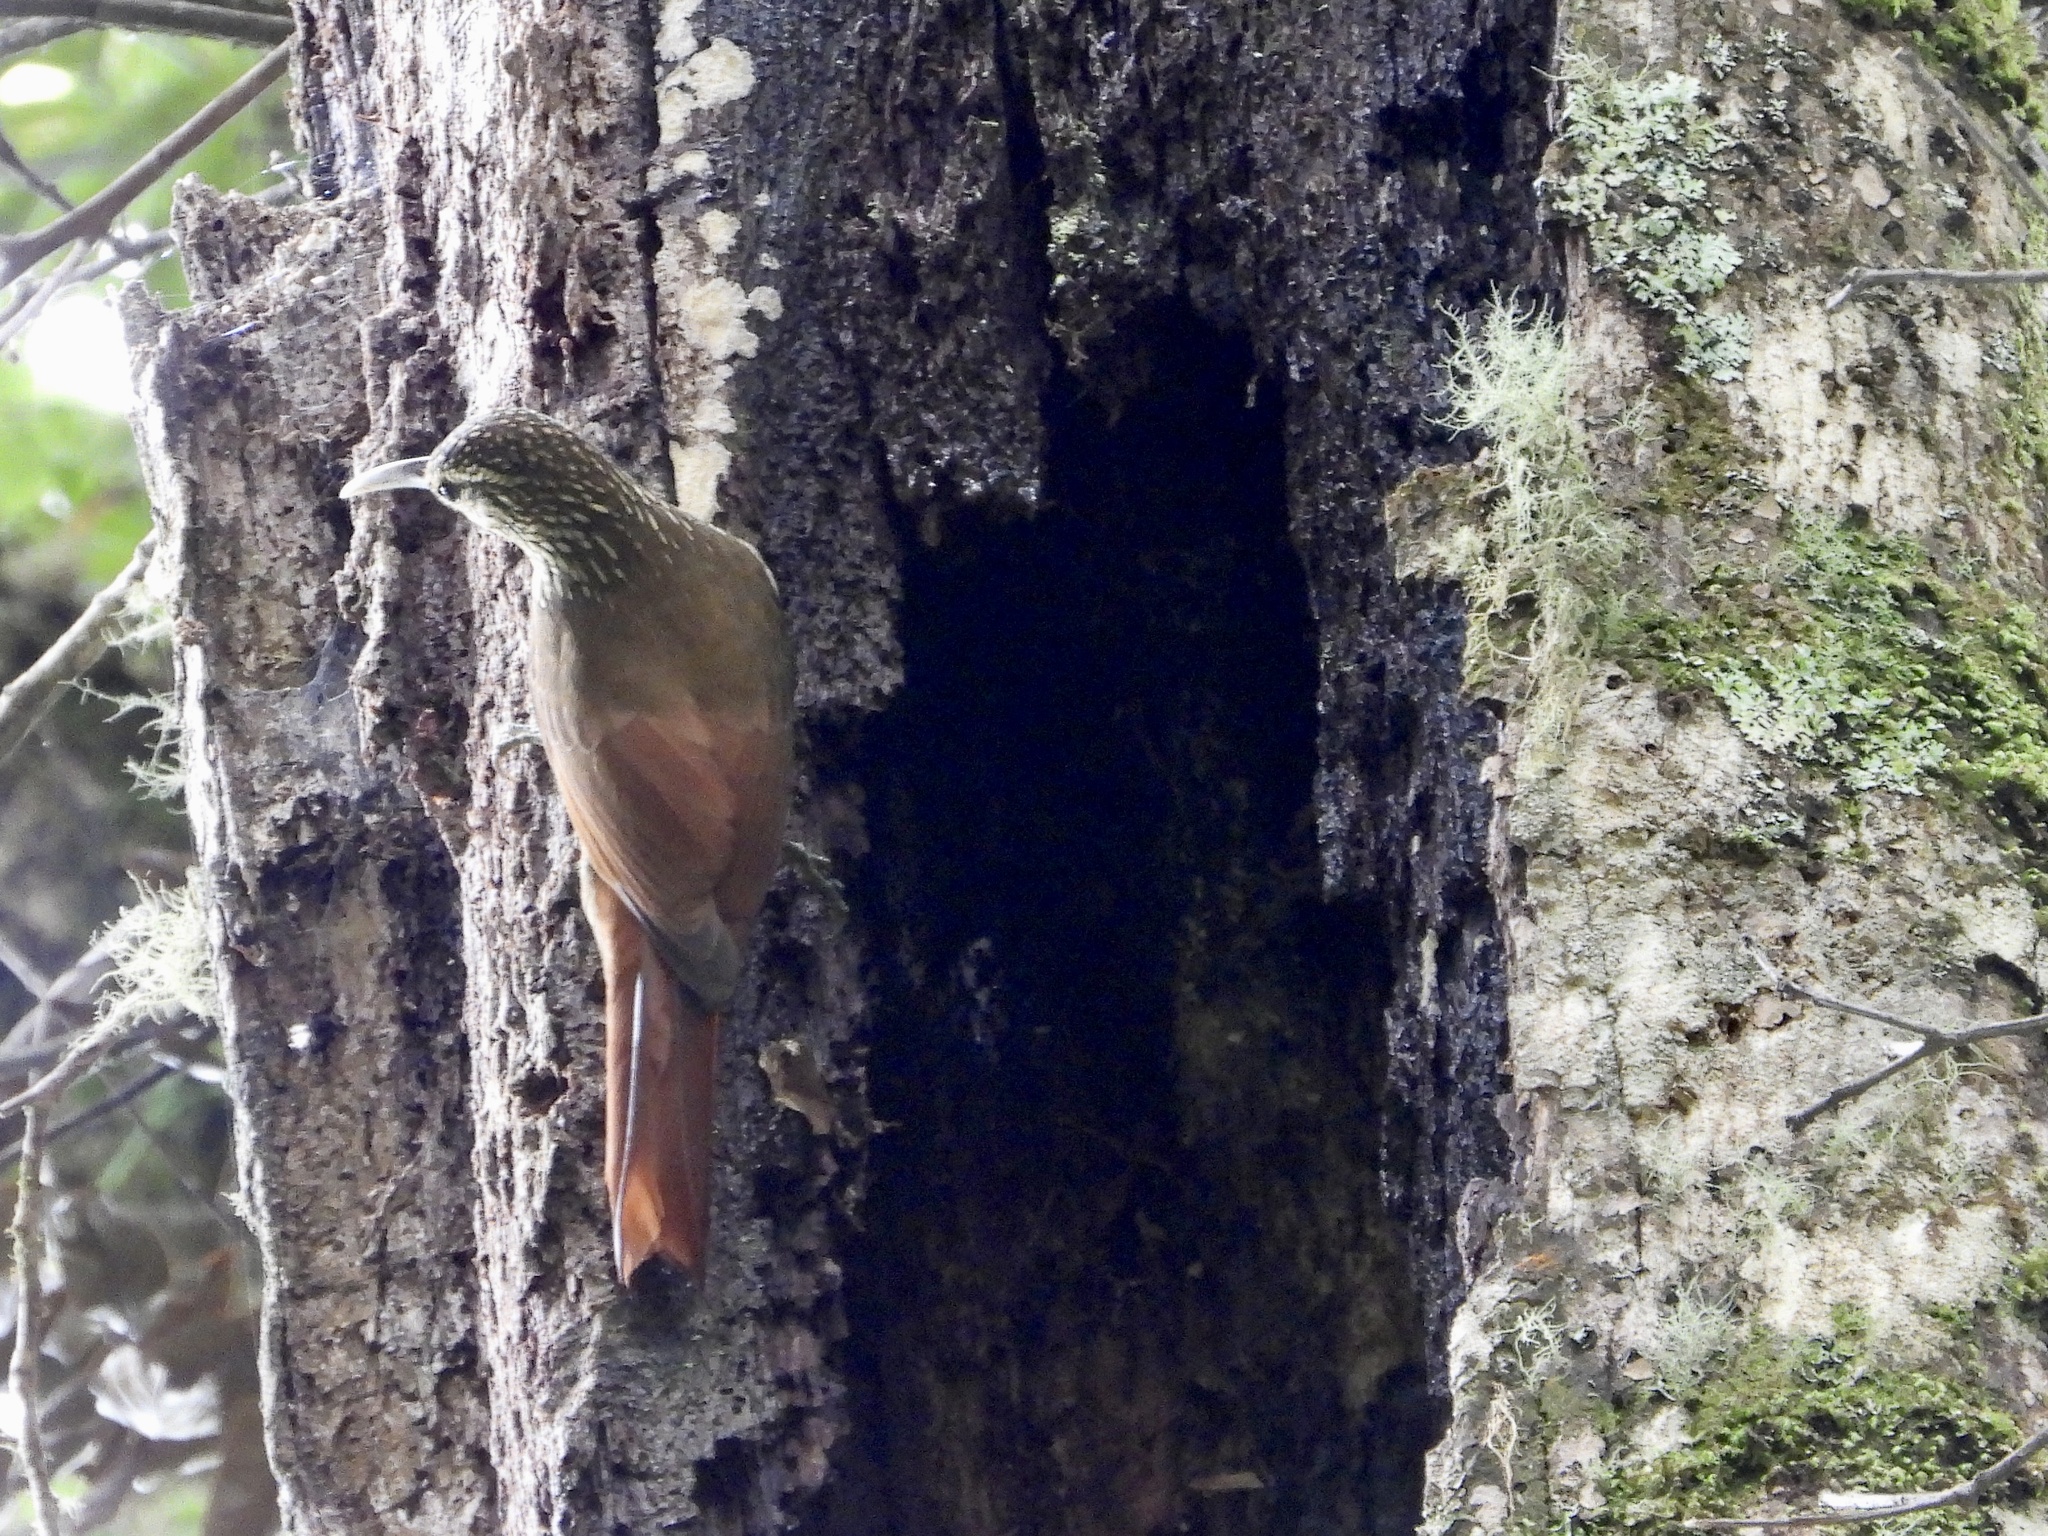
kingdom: Animalia
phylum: Chordata
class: Aves
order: Passeriformes
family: Furnariidae
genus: Lepidocolaptes
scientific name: Lepidocolaptes affinis
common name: Spot-crowned woodcreeper
